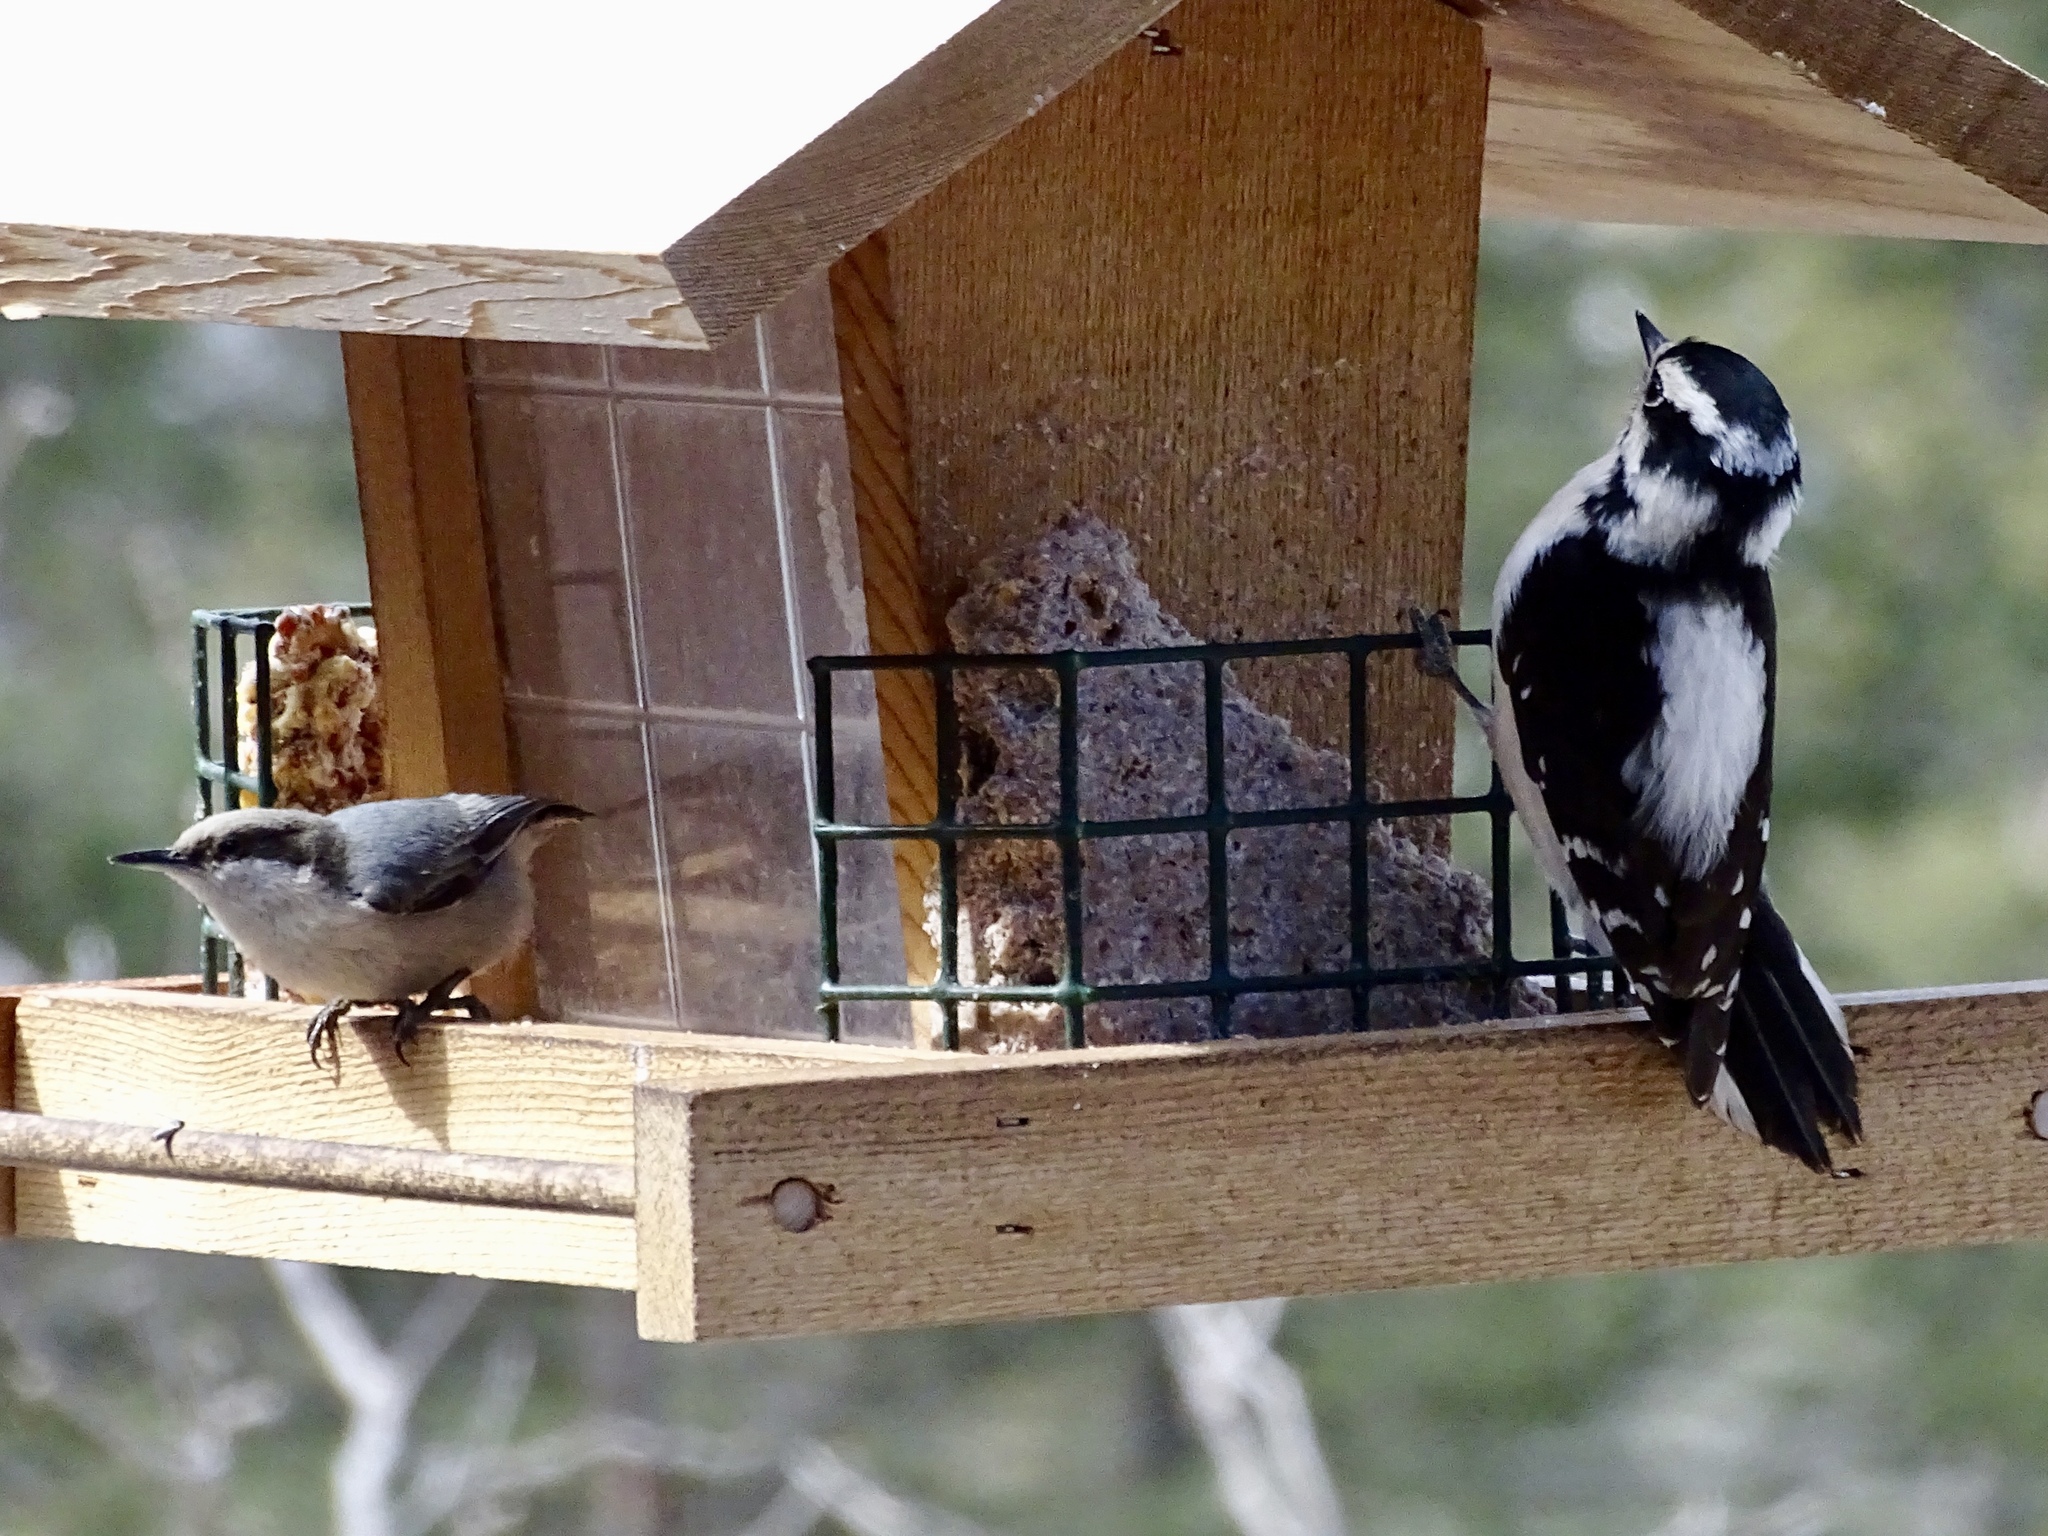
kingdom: Animalia
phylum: Chordata
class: Aves
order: Passeriformes
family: Sittidae
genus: Sitta
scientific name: Sitta pygmaea
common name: Pygmy nuthatch
